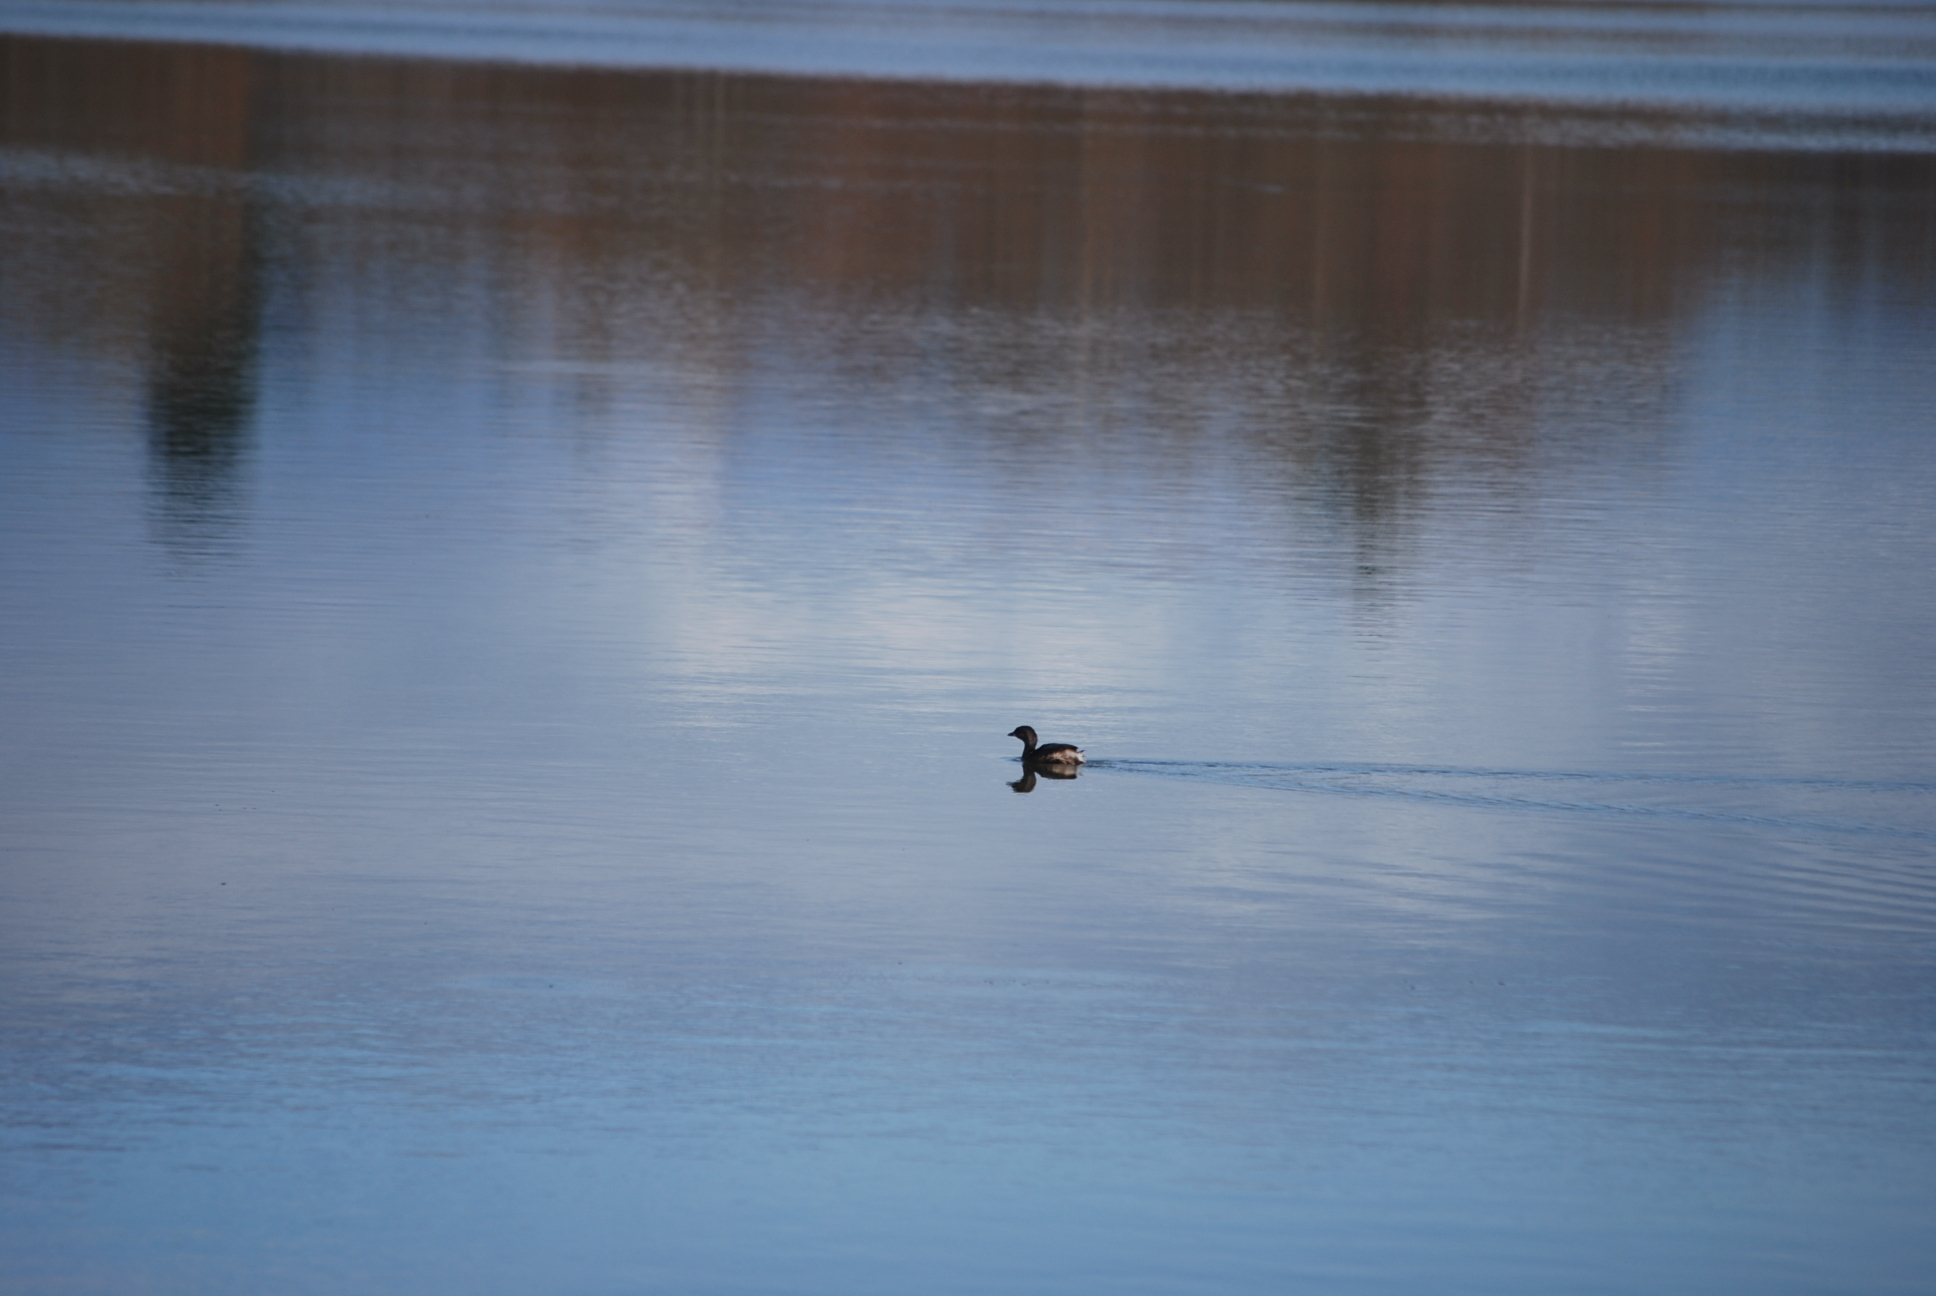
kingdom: Animalia
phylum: Chordata
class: Aves
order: Podicipediformes
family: Podicipedidae
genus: Podilymbus
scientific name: Podilymbus podiceps
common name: Pied-billed grebe
